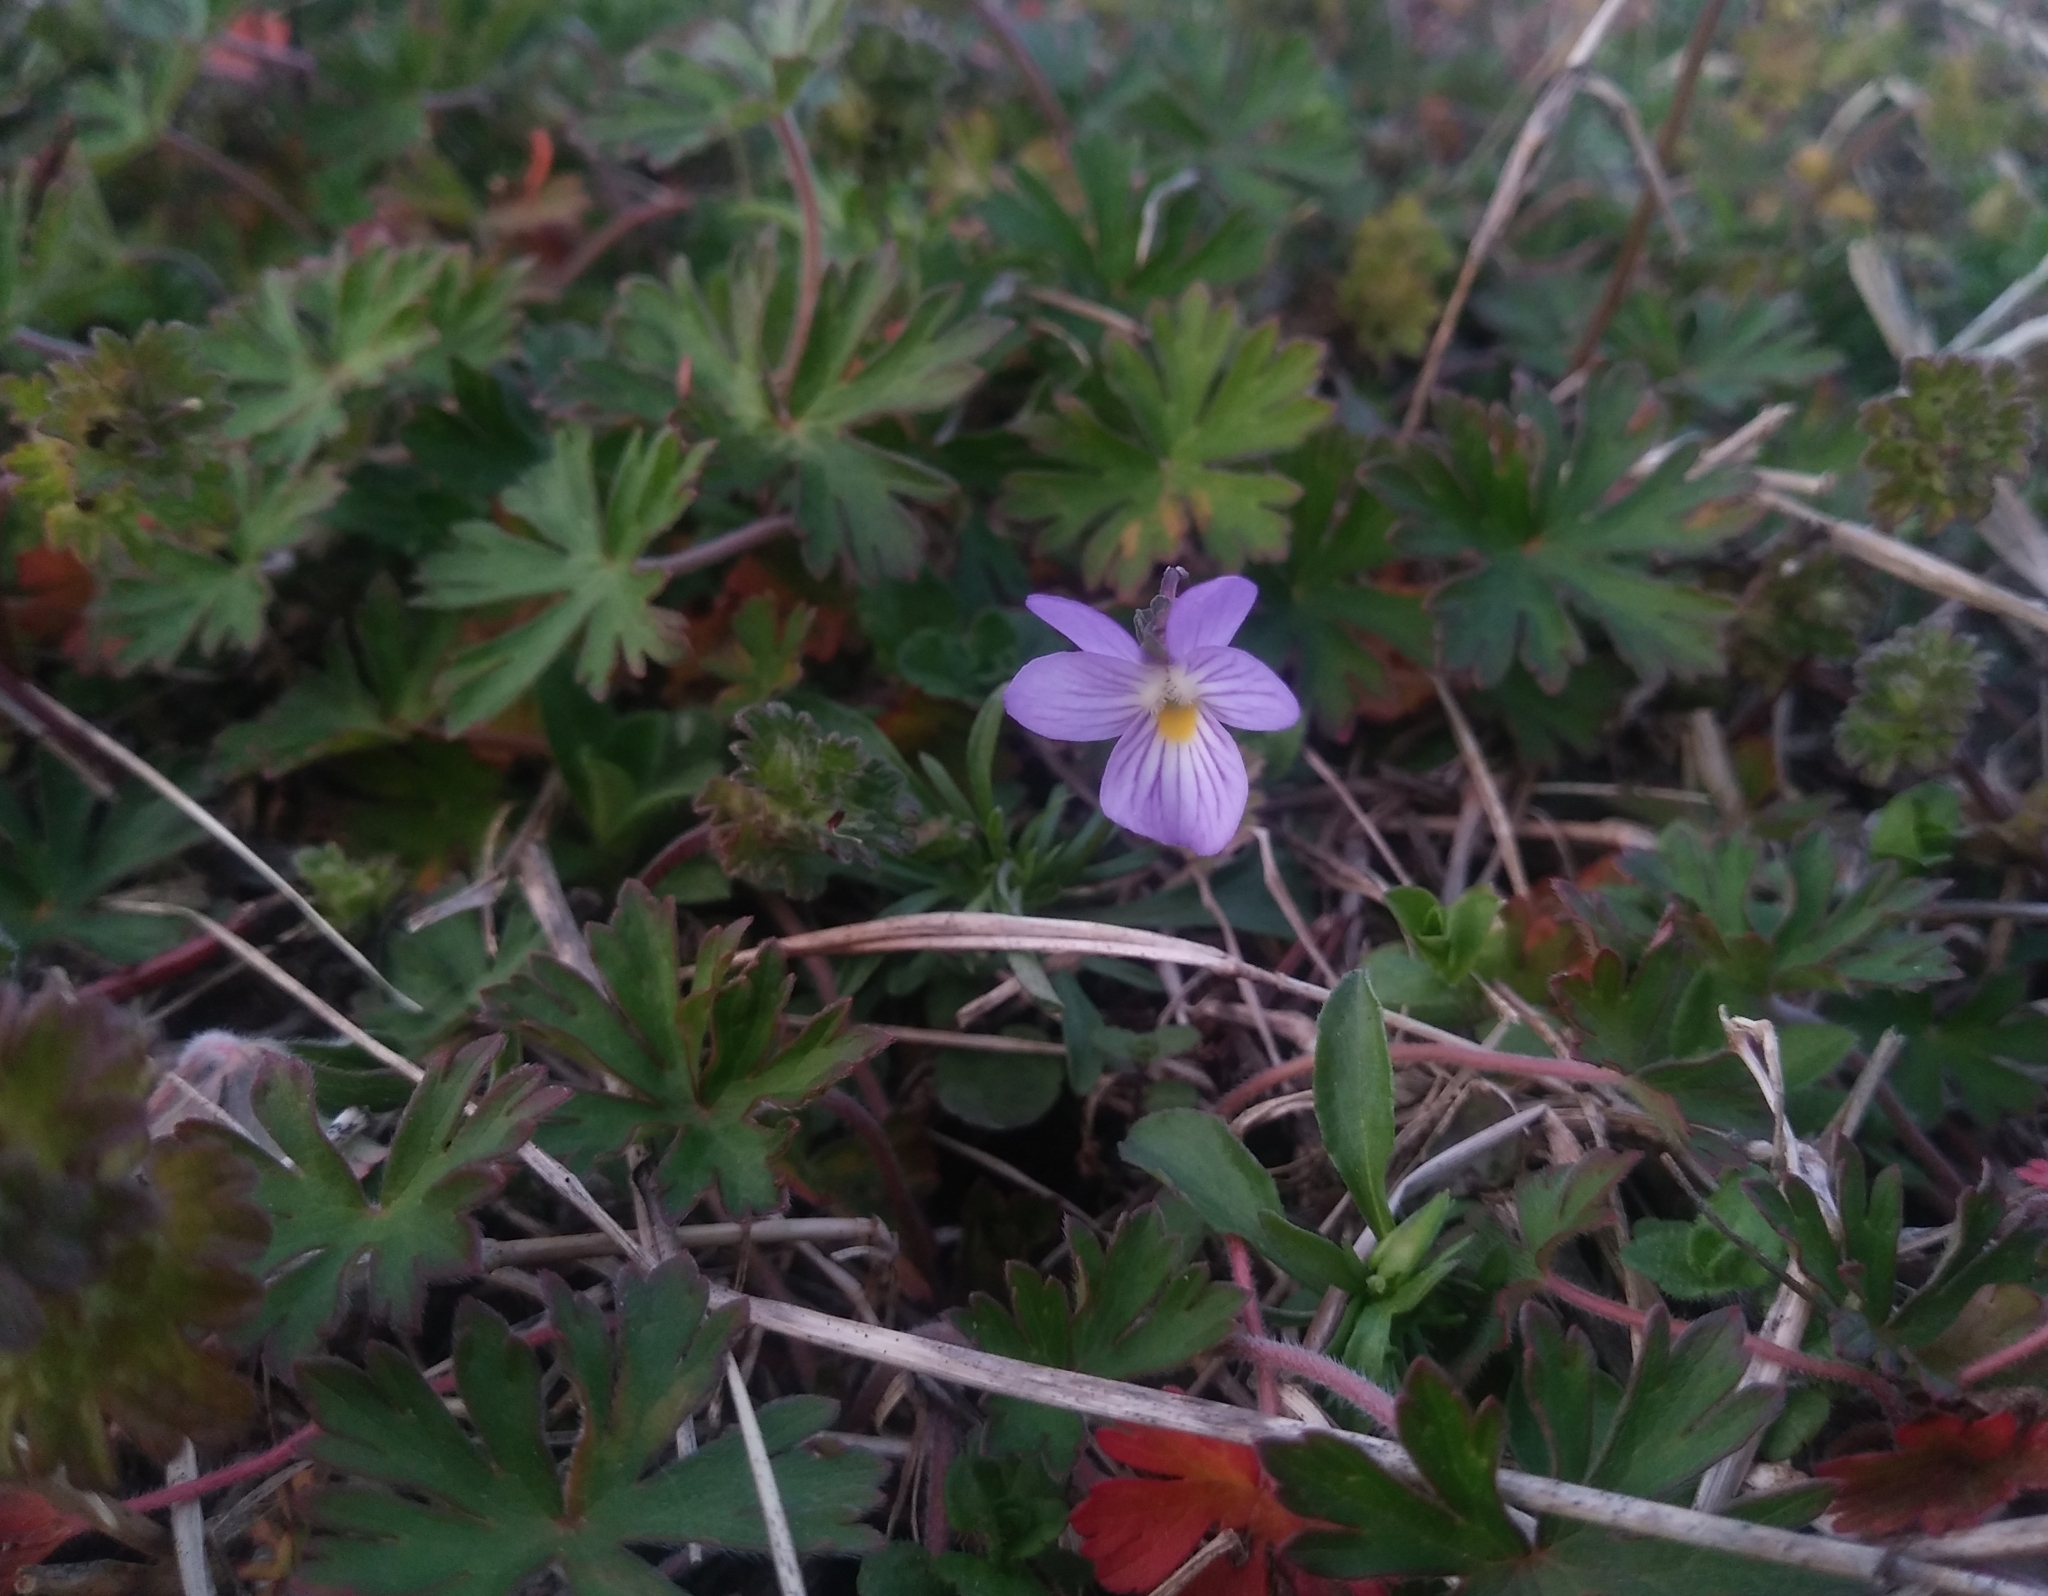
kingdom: Plantae
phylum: Tracheophyta
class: Magnoliopsida
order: Malpighiales
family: Violaceae
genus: Viola
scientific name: Viola rafinesquei
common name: American field pansy
